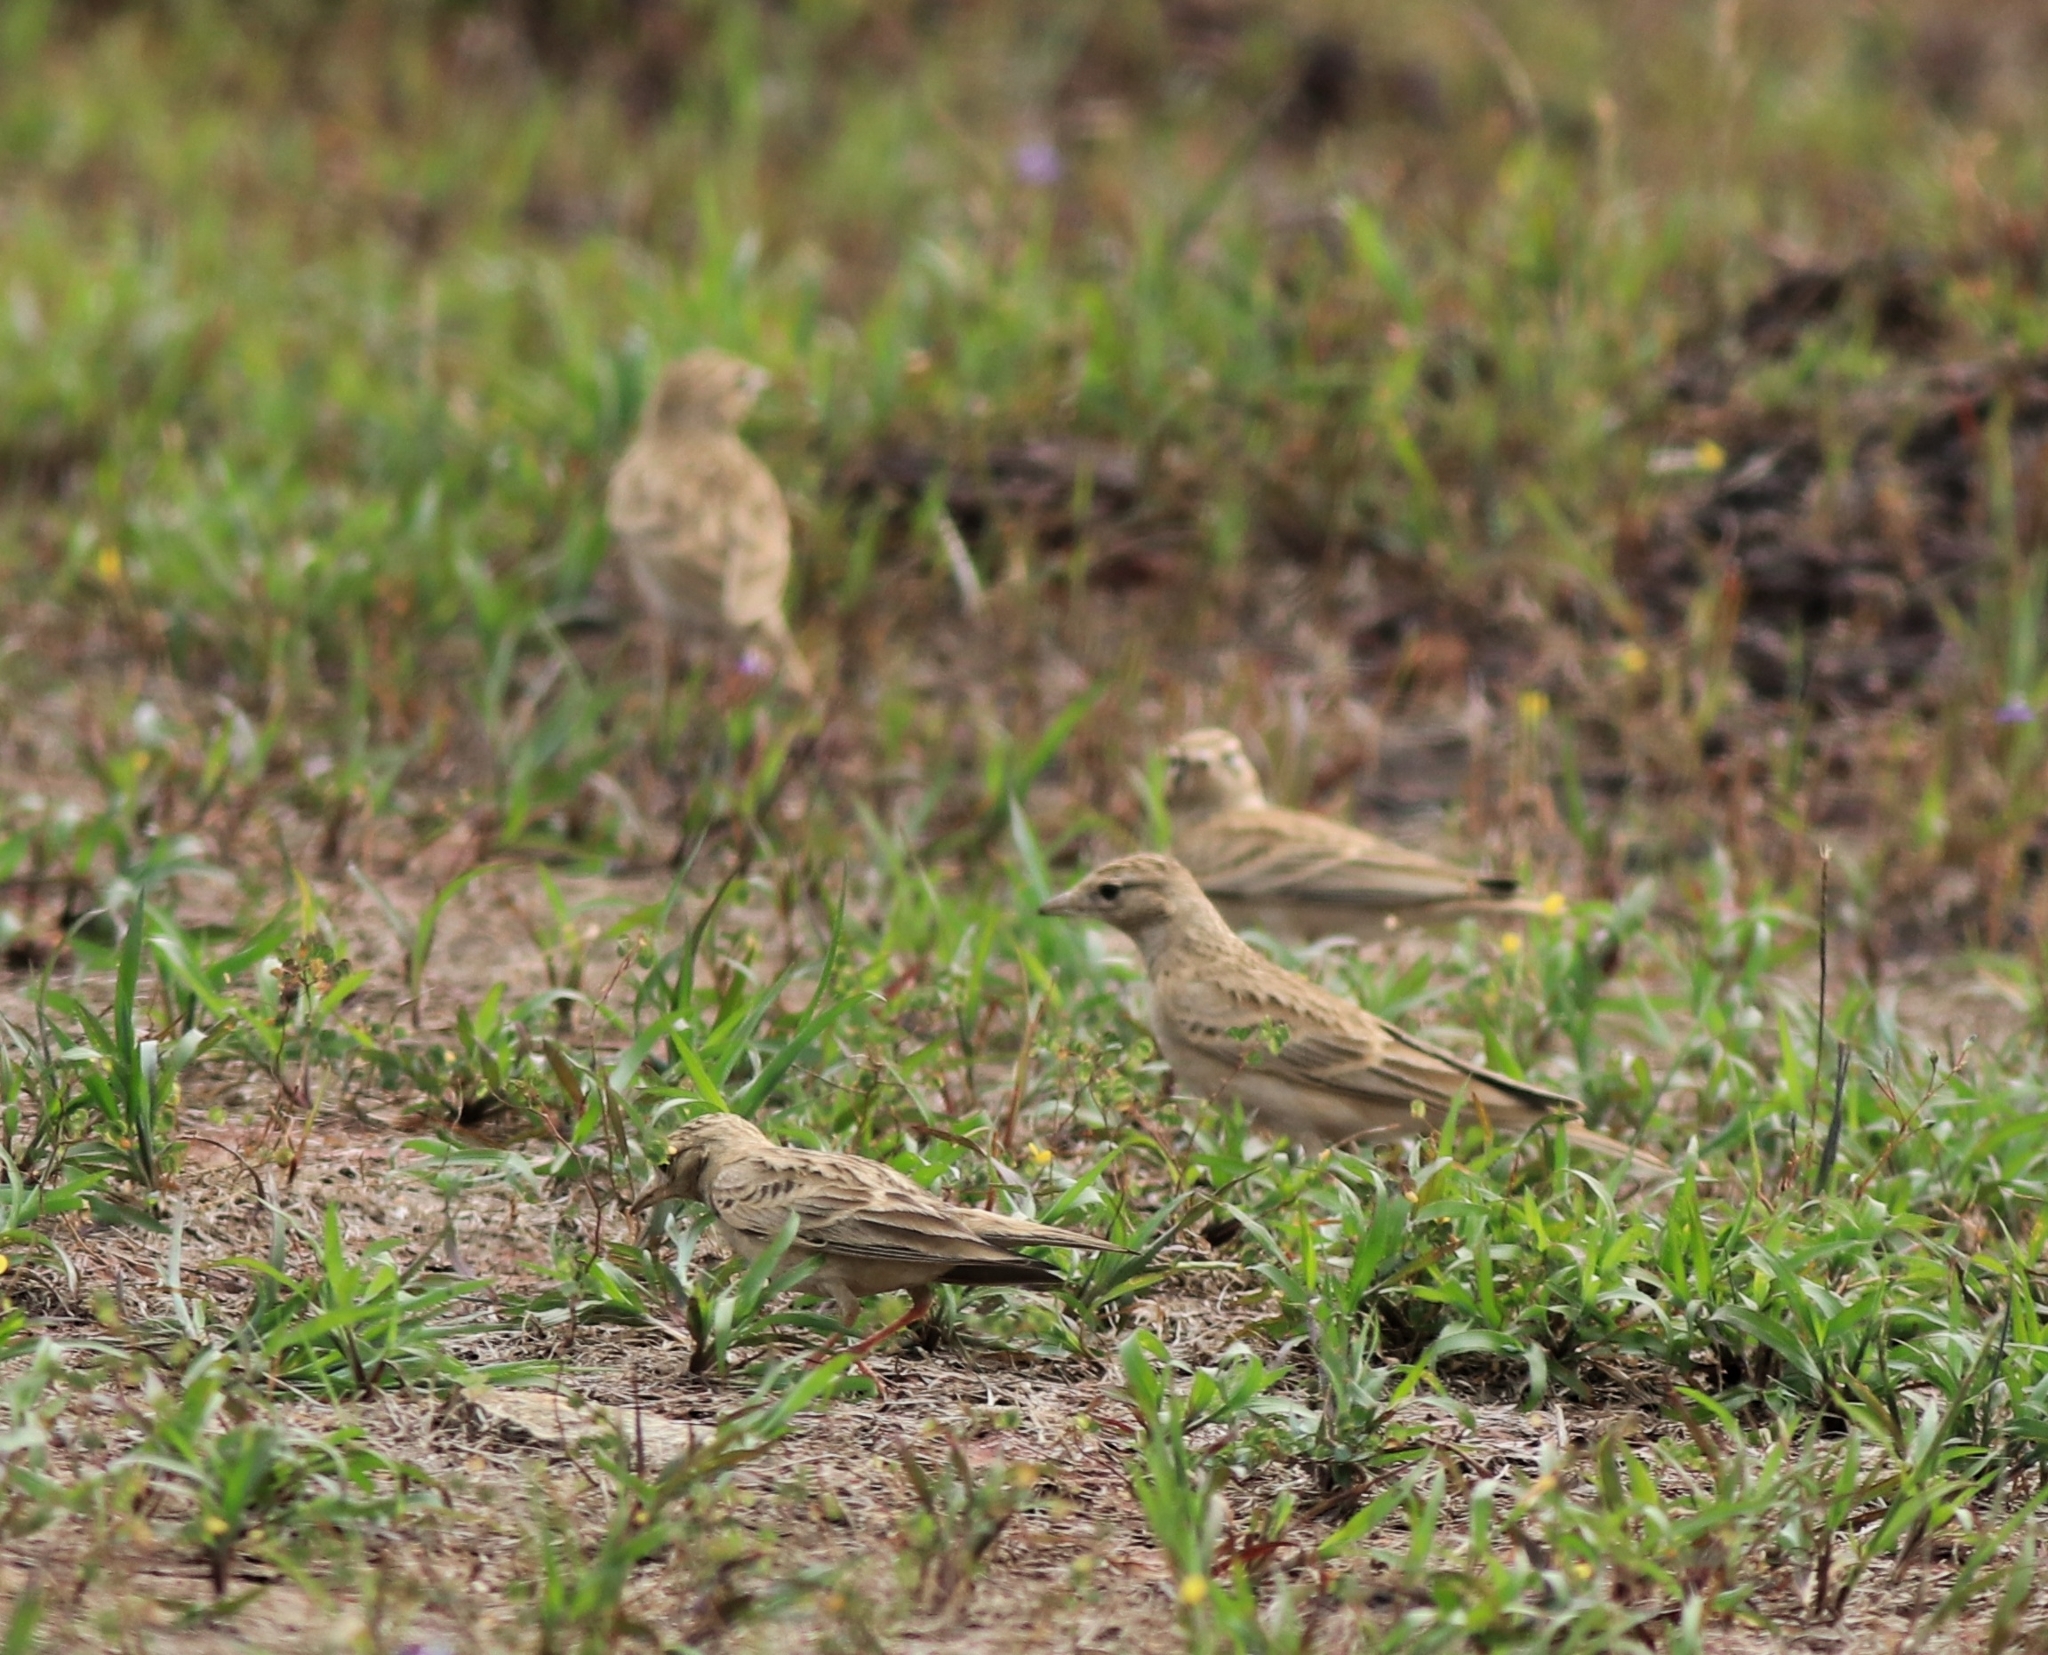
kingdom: Animalia
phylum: Chordata
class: Aves
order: Passeriformes
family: Alaudidae
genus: Calandrella
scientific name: Calandrella brachydactyla
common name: Greater short-toed lark
